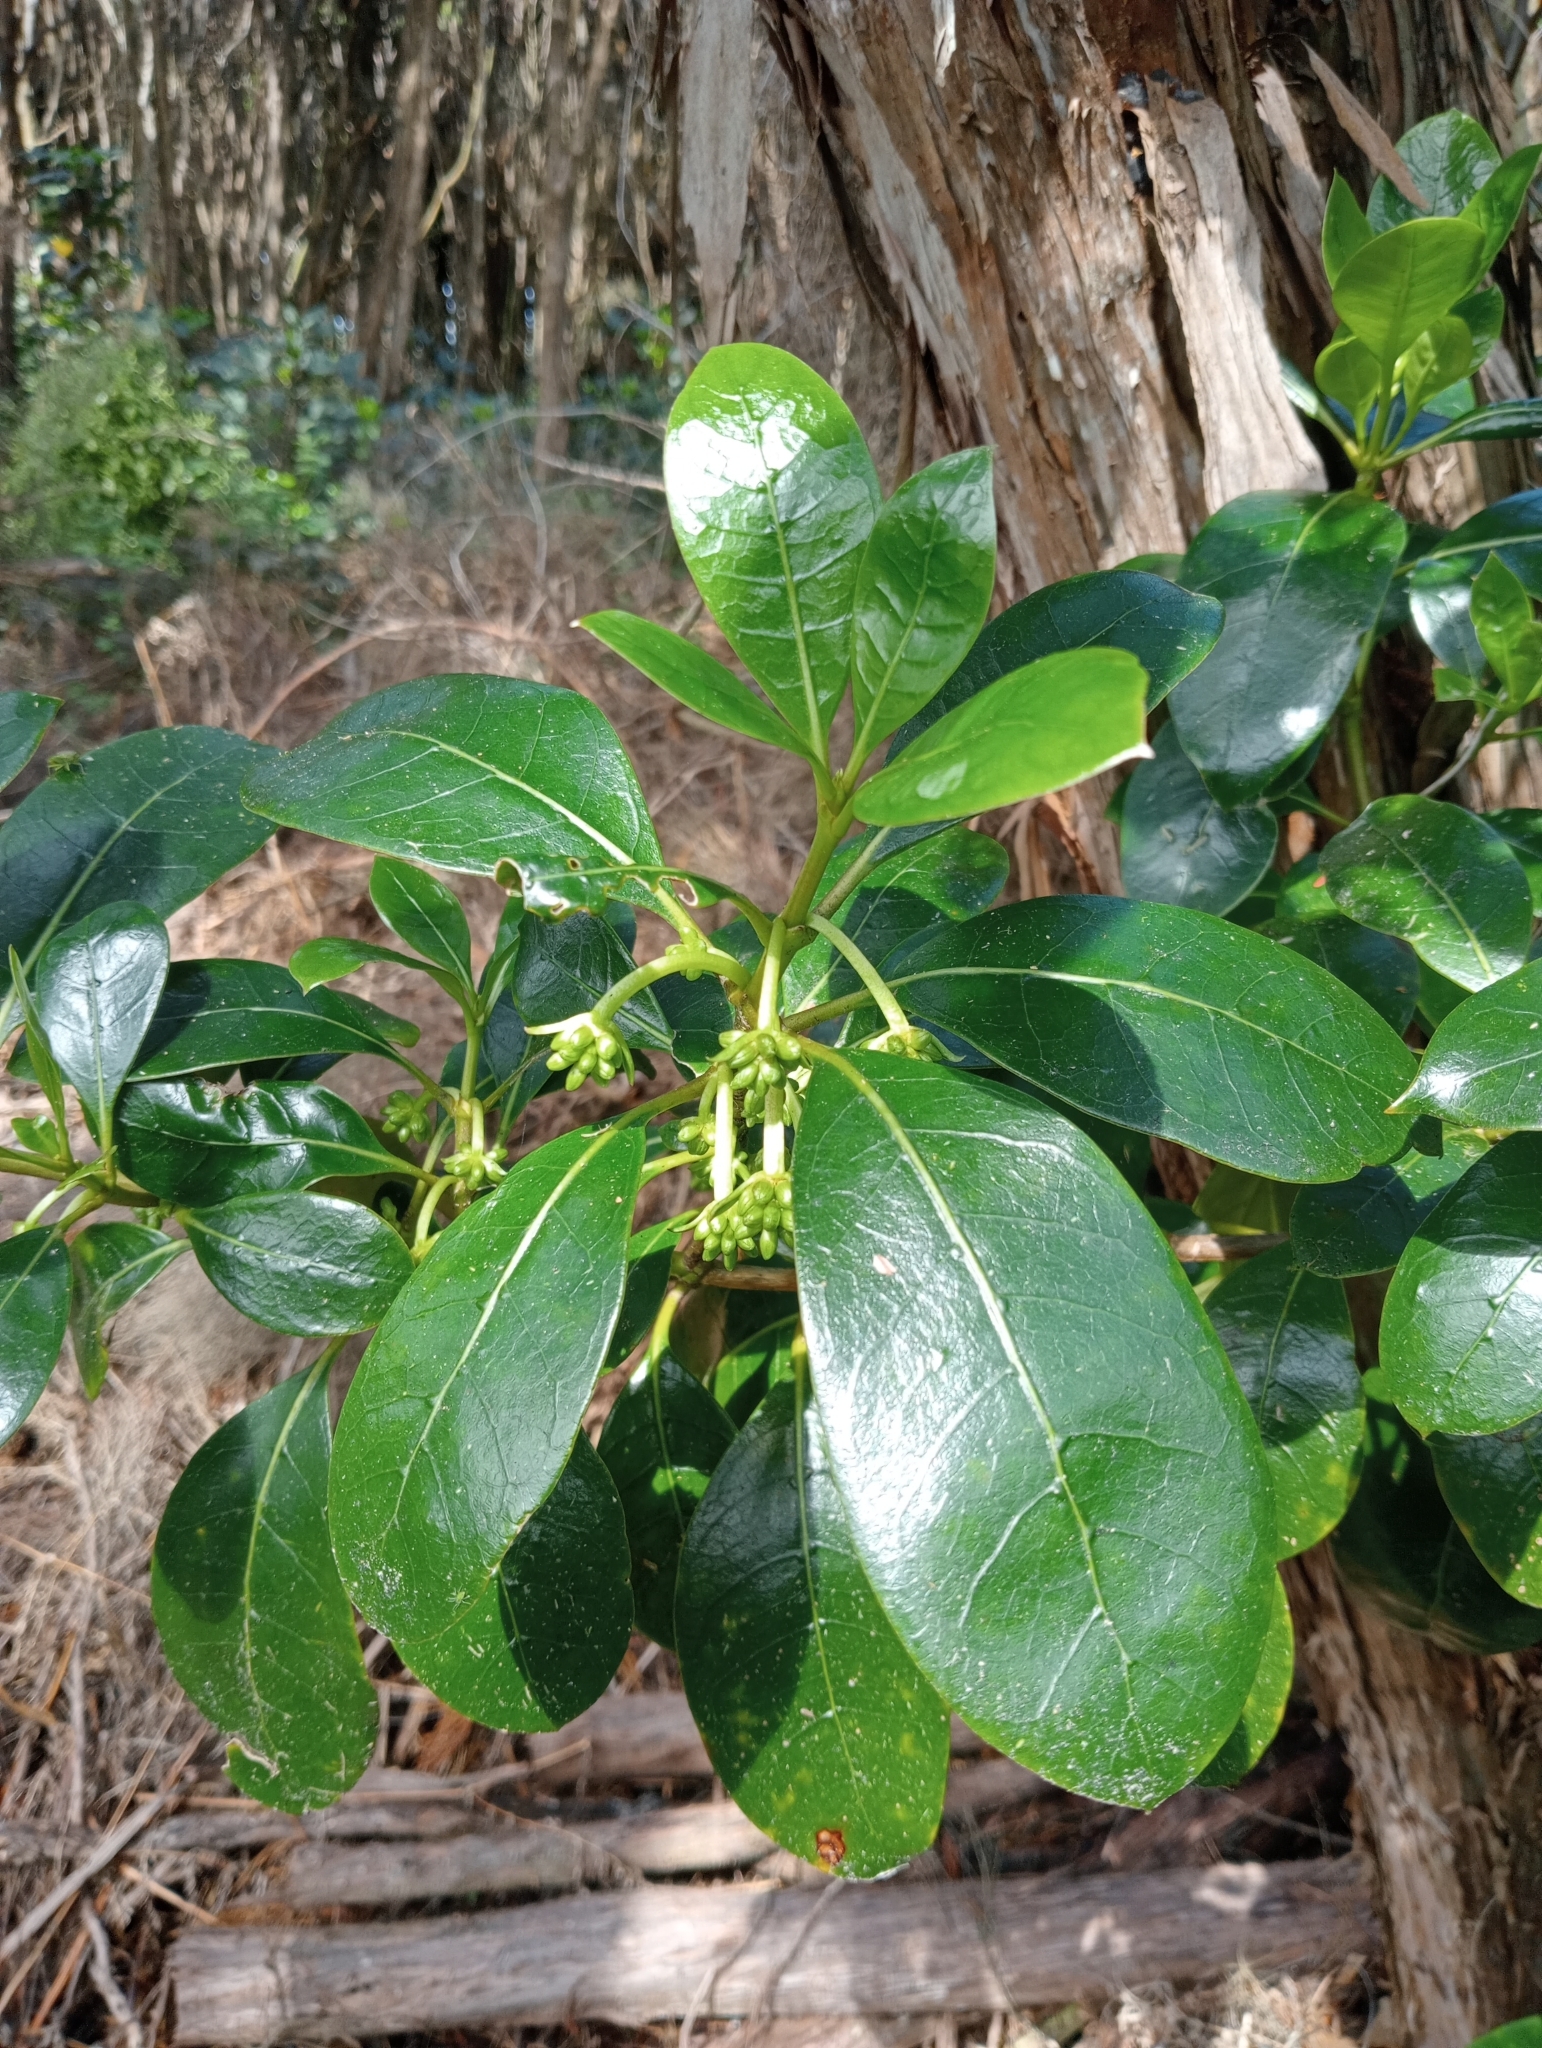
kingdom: Plantae
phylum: Tracheophyta
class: Magnoliopsida
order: Gentianales
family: Rubiaceae
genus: Coprosma
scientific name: Coprosma lucida
